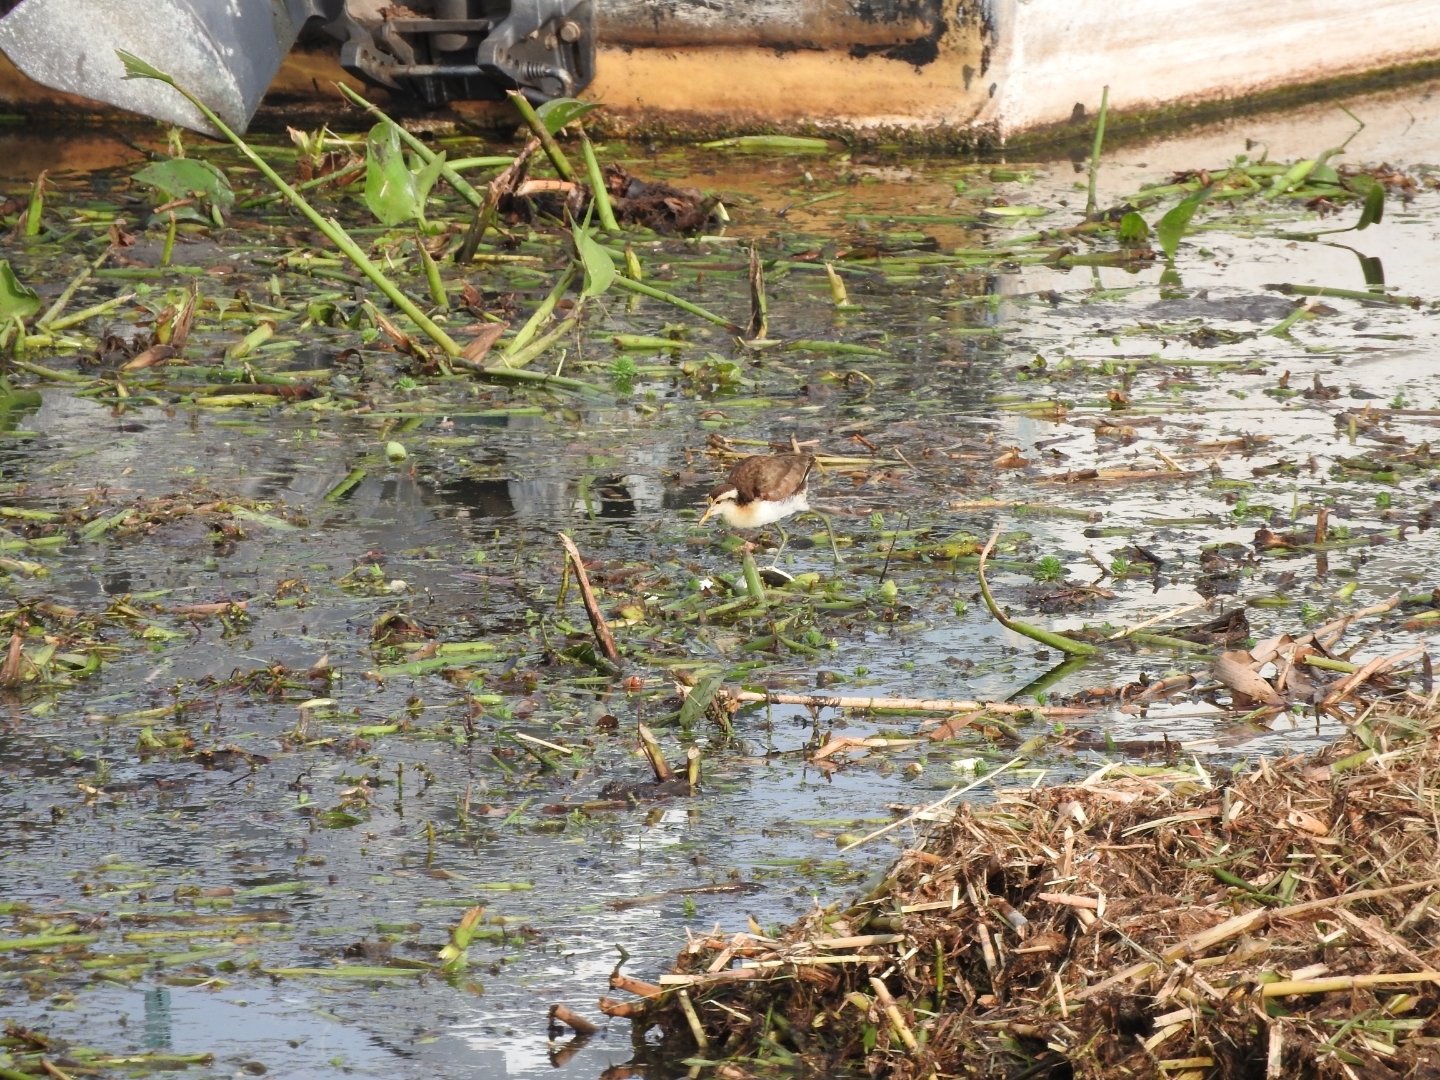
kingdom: Animalia
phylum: Chordata
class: Aves
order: Charadriiformes
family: Jacanidae
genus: Jacana
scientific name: Jacana spinosa
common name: Northern jacana
